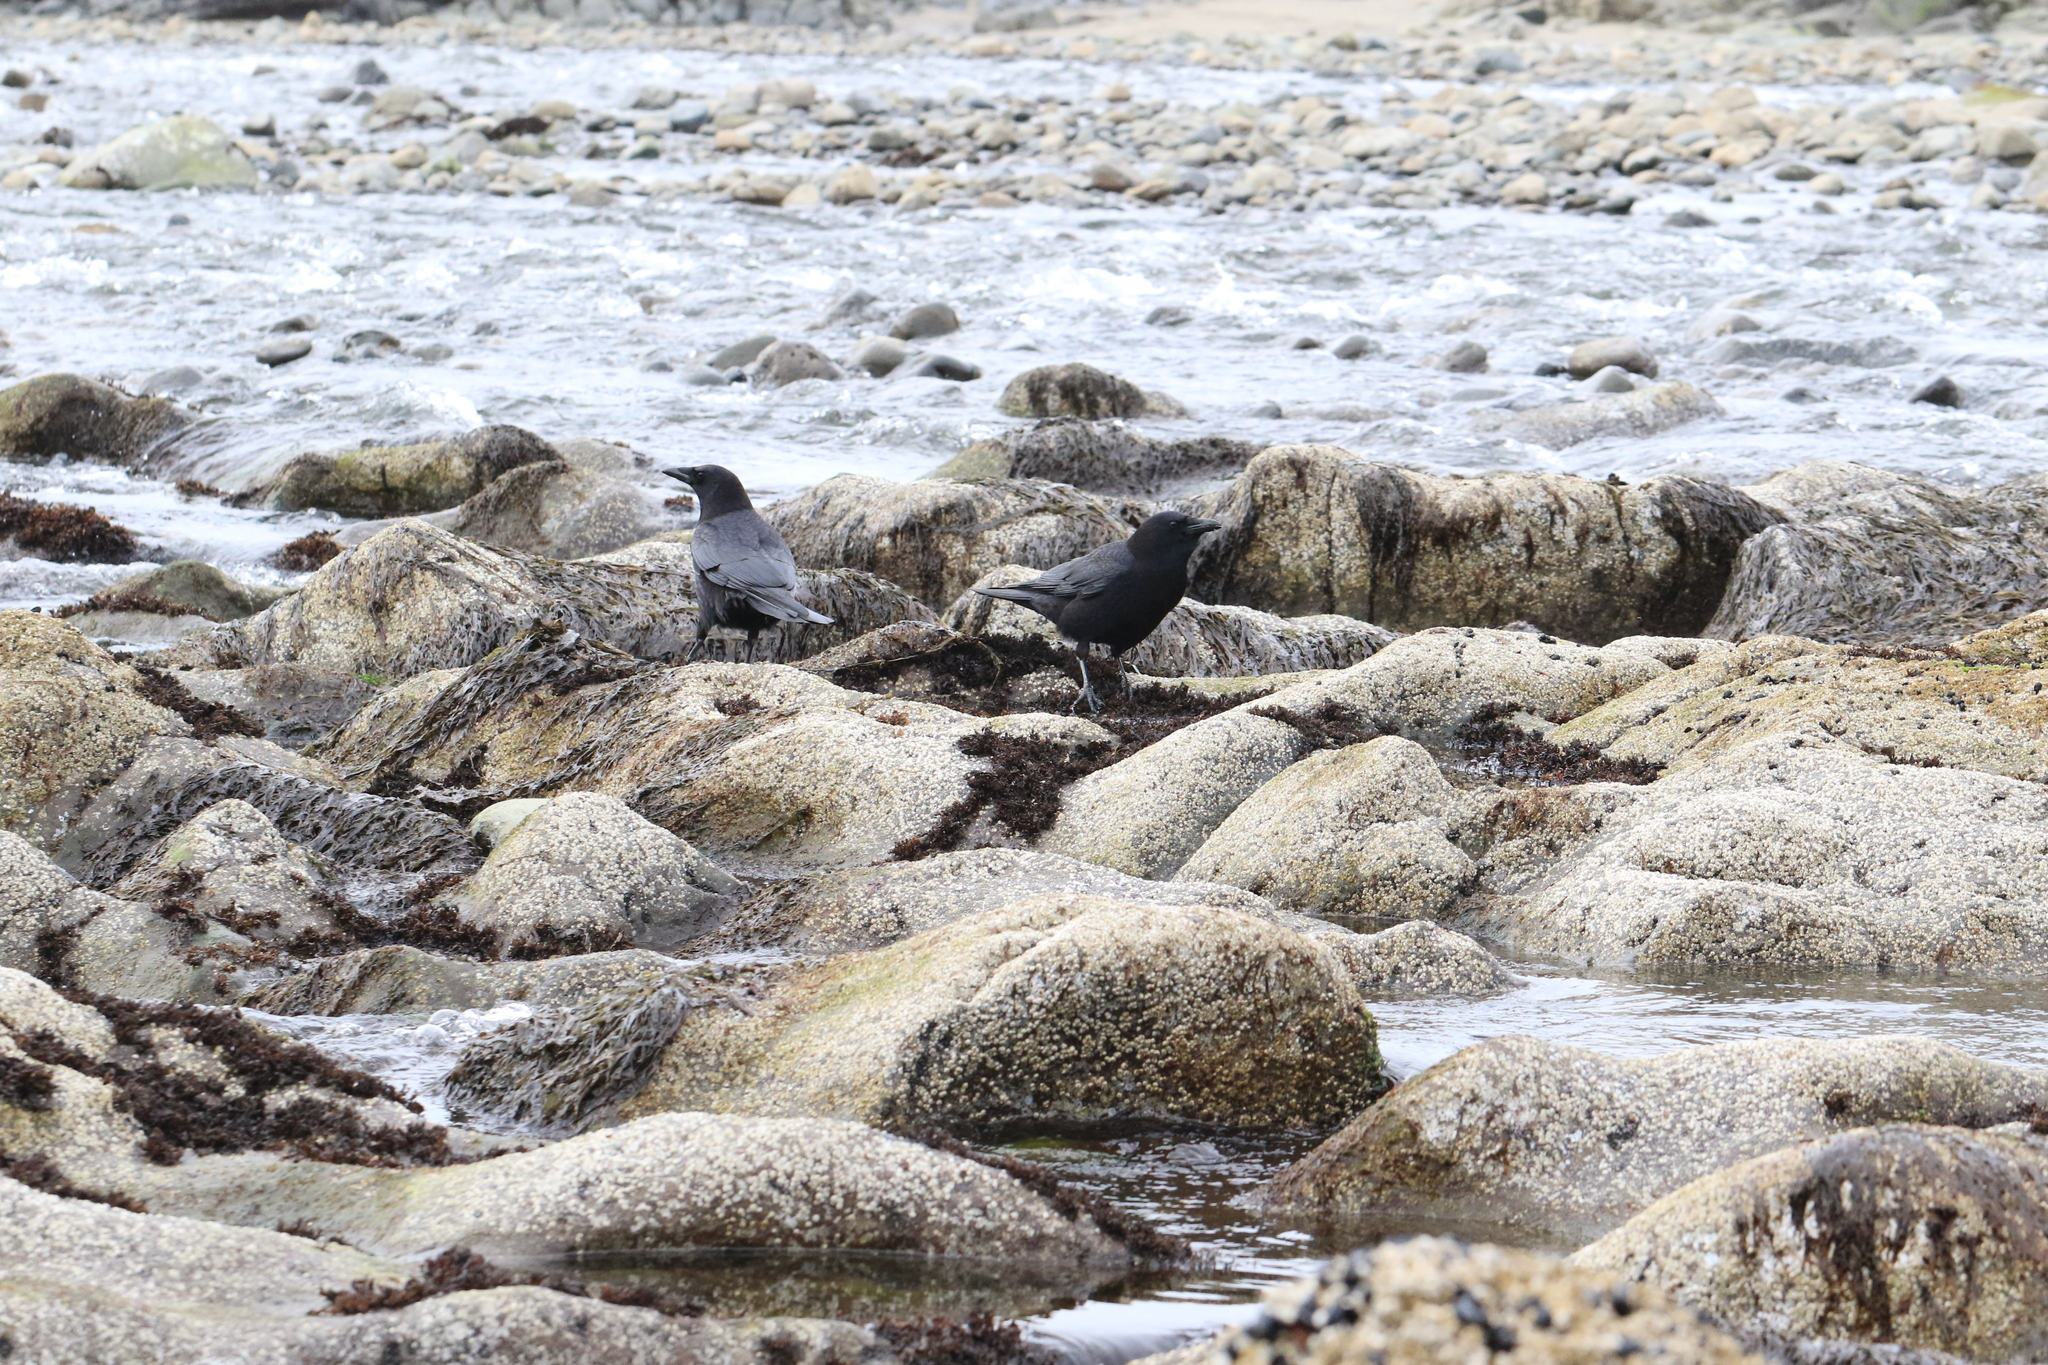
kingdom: Animalia
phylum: Chordata
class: Aves
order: Passeriformes
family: Corvidae
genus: Corvus
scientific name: Corvus brachyrhynchos
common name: American crow
